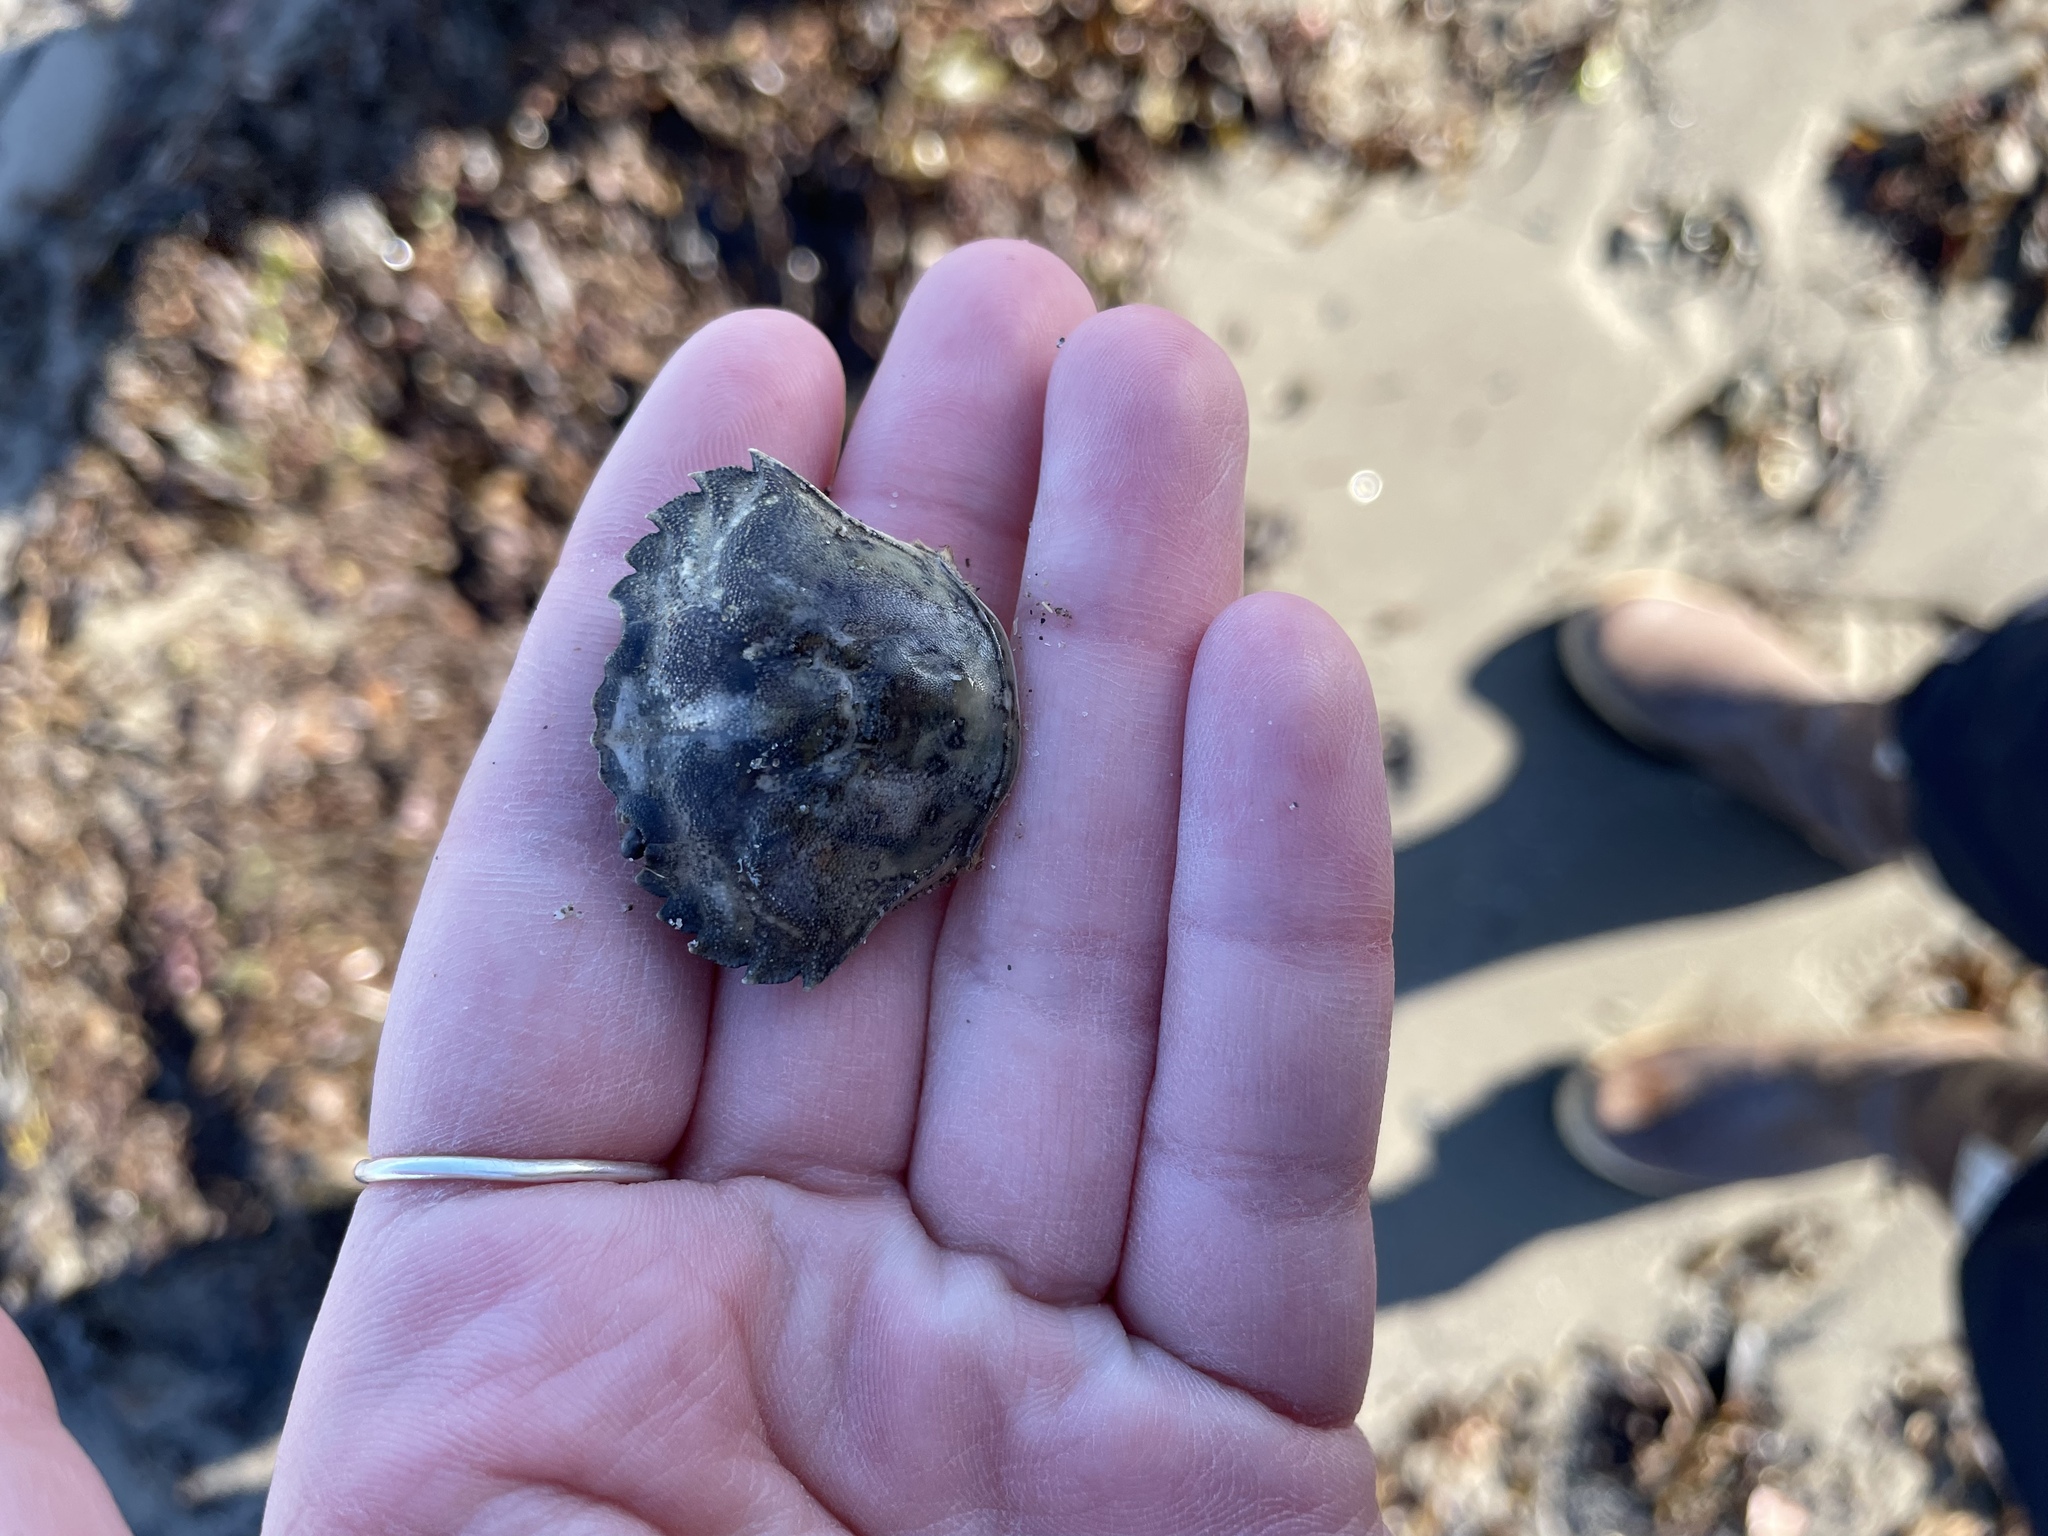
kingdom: Animalia
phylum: Arthropoda
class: Malacostraca
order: Decapoda
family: Carcinidae
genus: Carcinus
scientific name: Carcinus maenas
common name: European green crab
